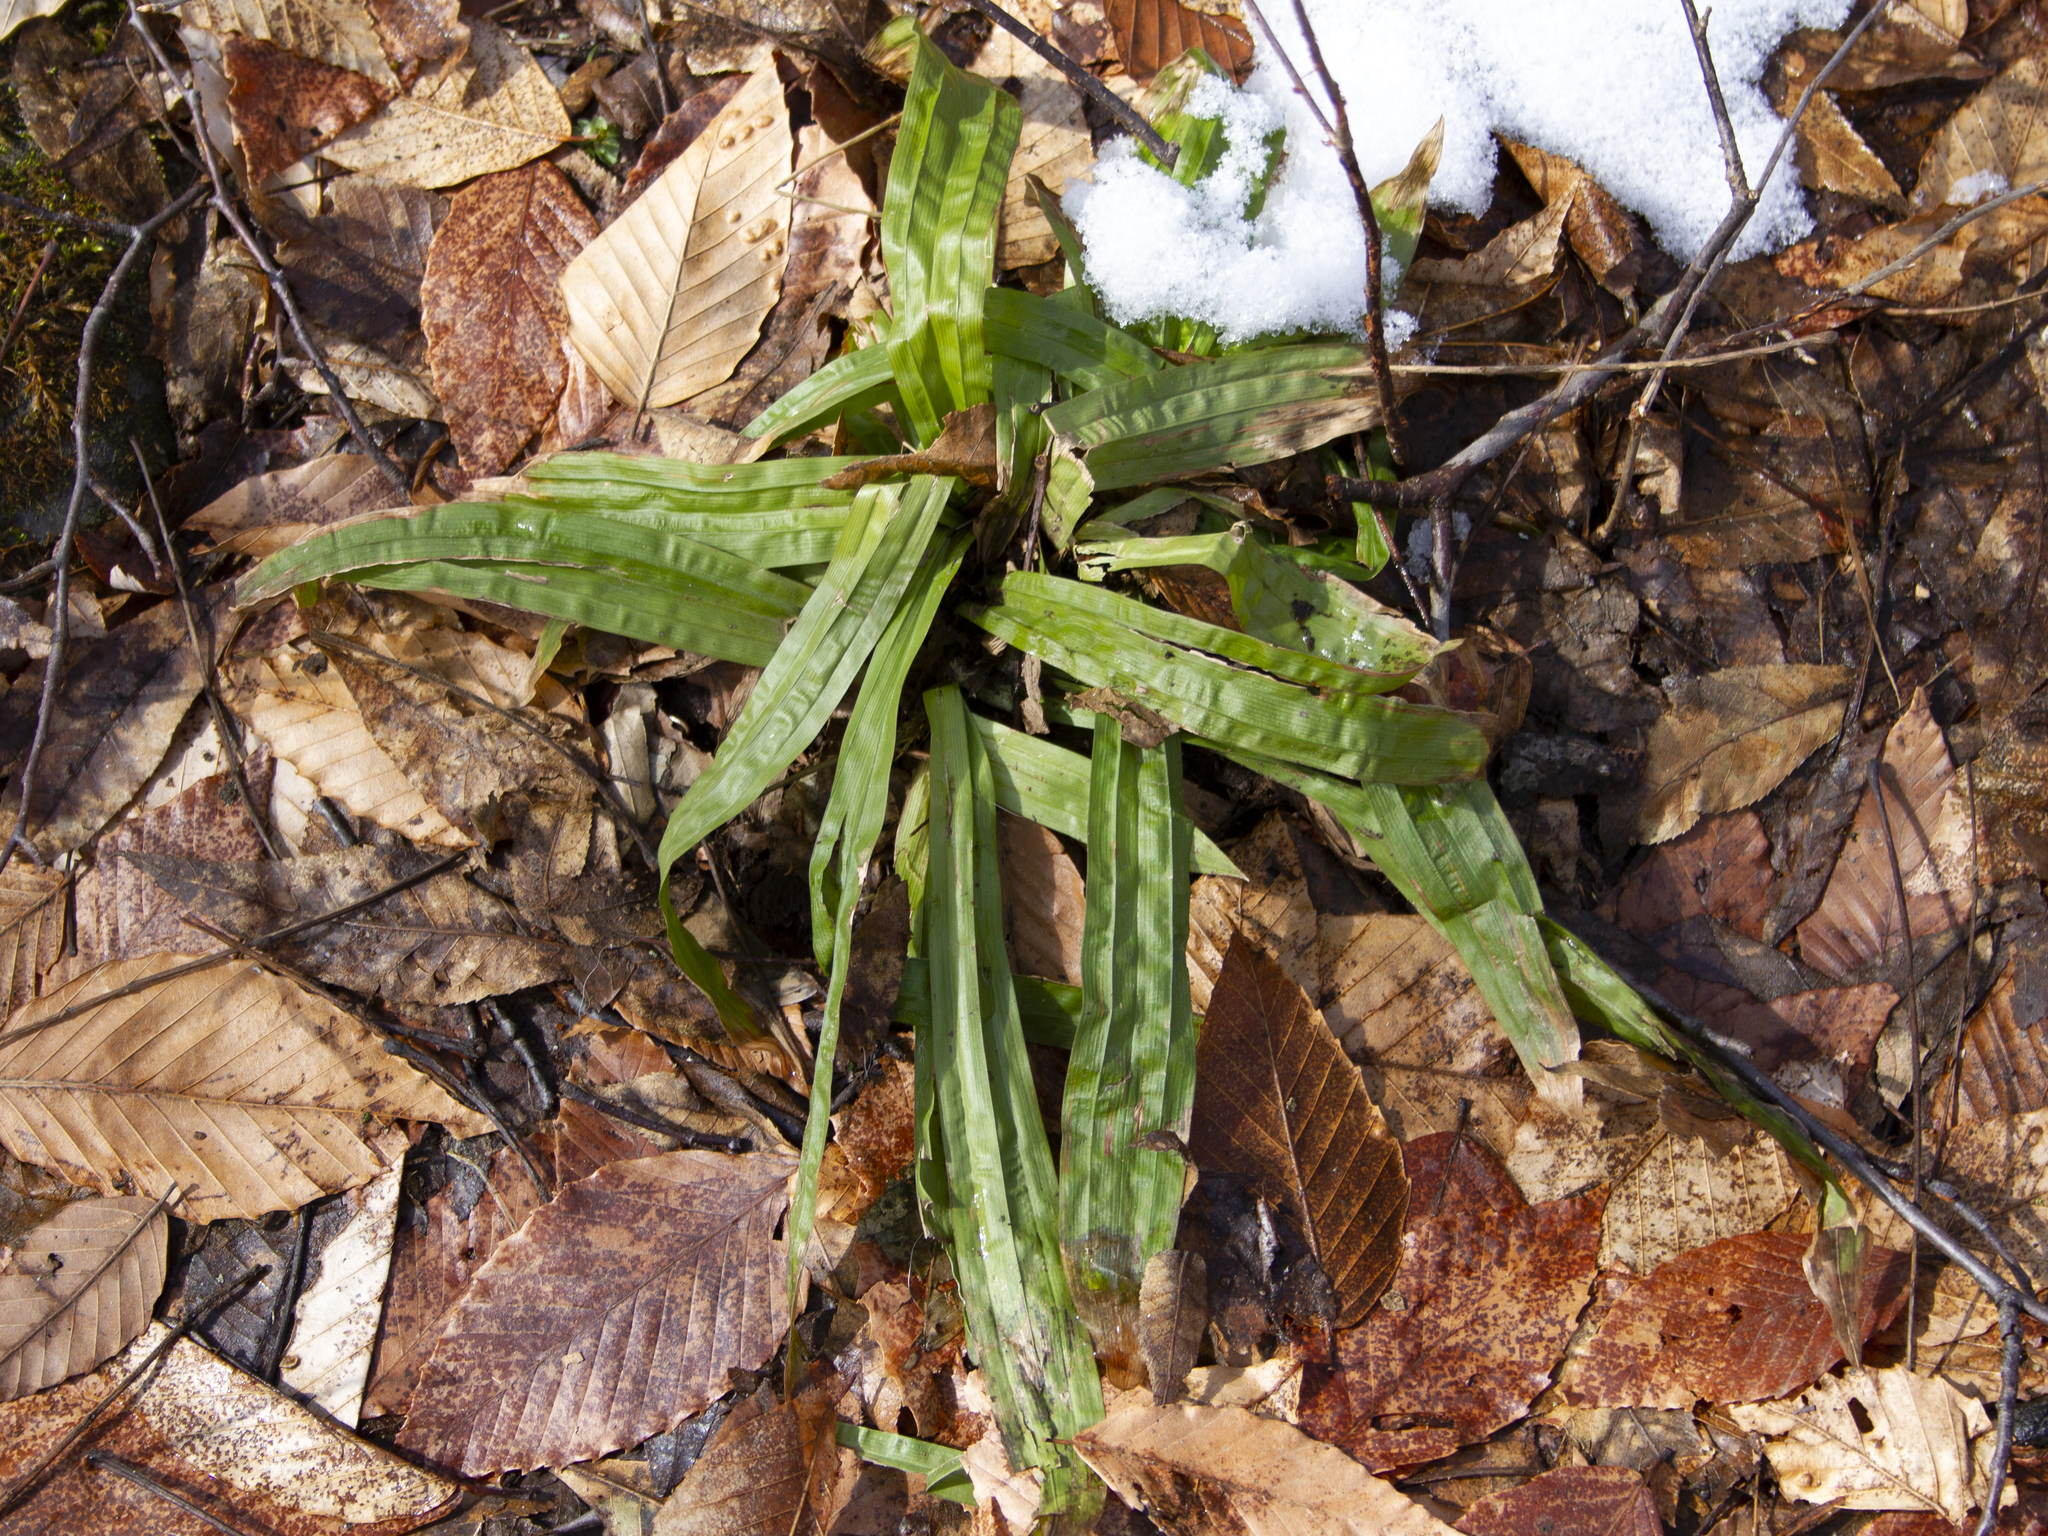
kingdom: Plantae
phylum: Tracheophyta
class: Liliopsida
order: Poales
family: Cyperaceae
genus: Carex
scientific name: Carex plantaginea
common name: Plantain-leaved sedge
